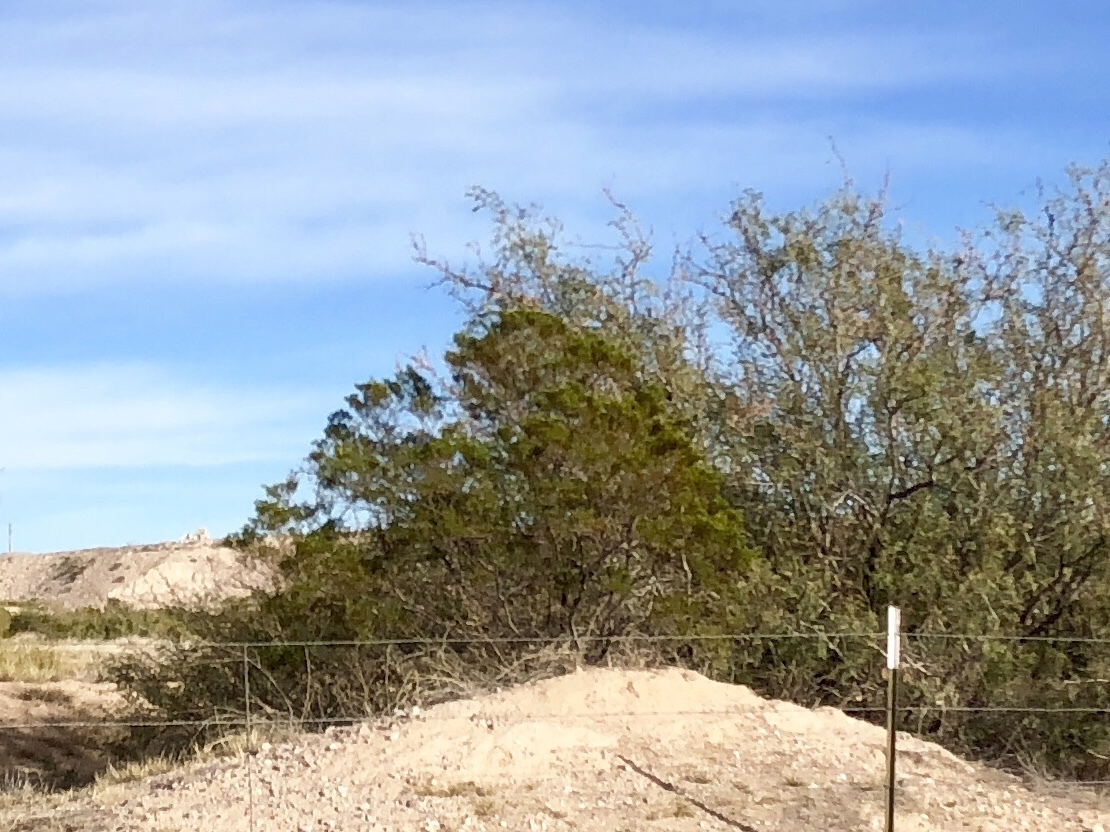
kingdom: Plantae
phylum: Tracheophyta
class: Magnoliopsida
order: Zygophyllales
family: Zygophyllaceae
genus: Larrea
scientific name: Larrea tridentata
